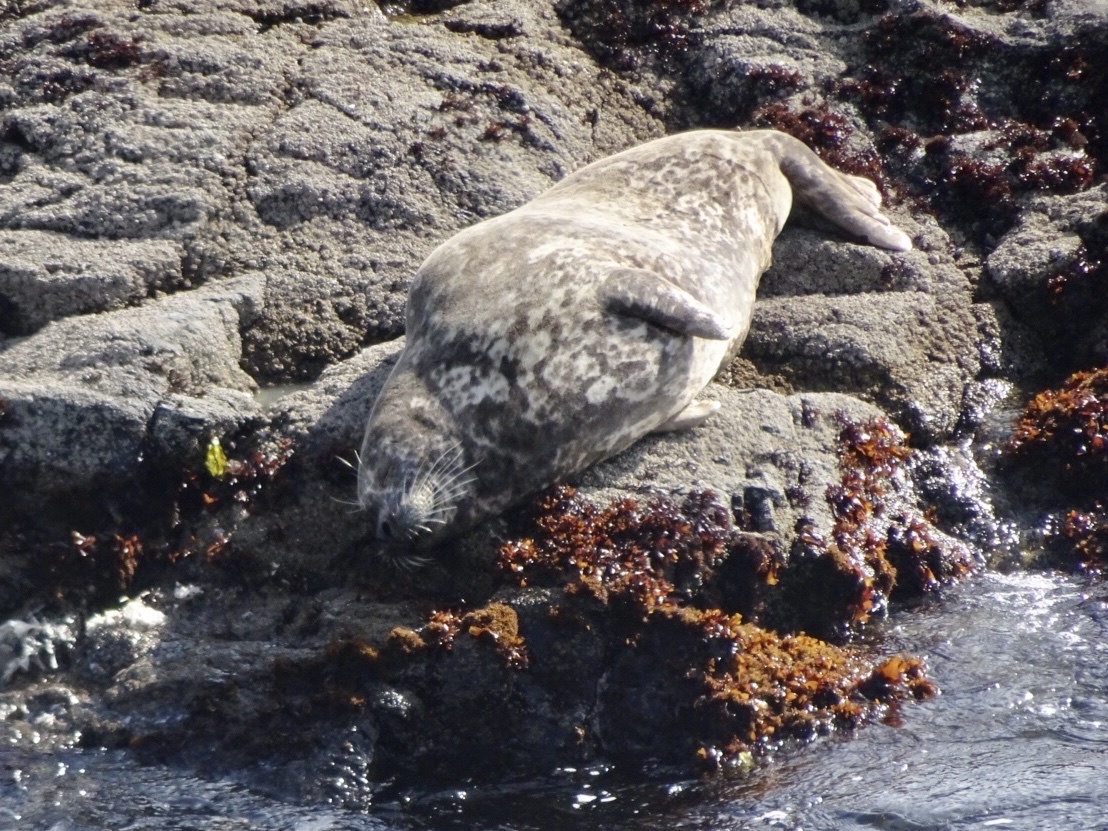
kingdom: Animalia
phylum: Chordata
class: Mammalia
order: Carnivora
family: Phocidae
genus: Phoca
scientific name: Phoca vitulina
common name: Harbor seal
